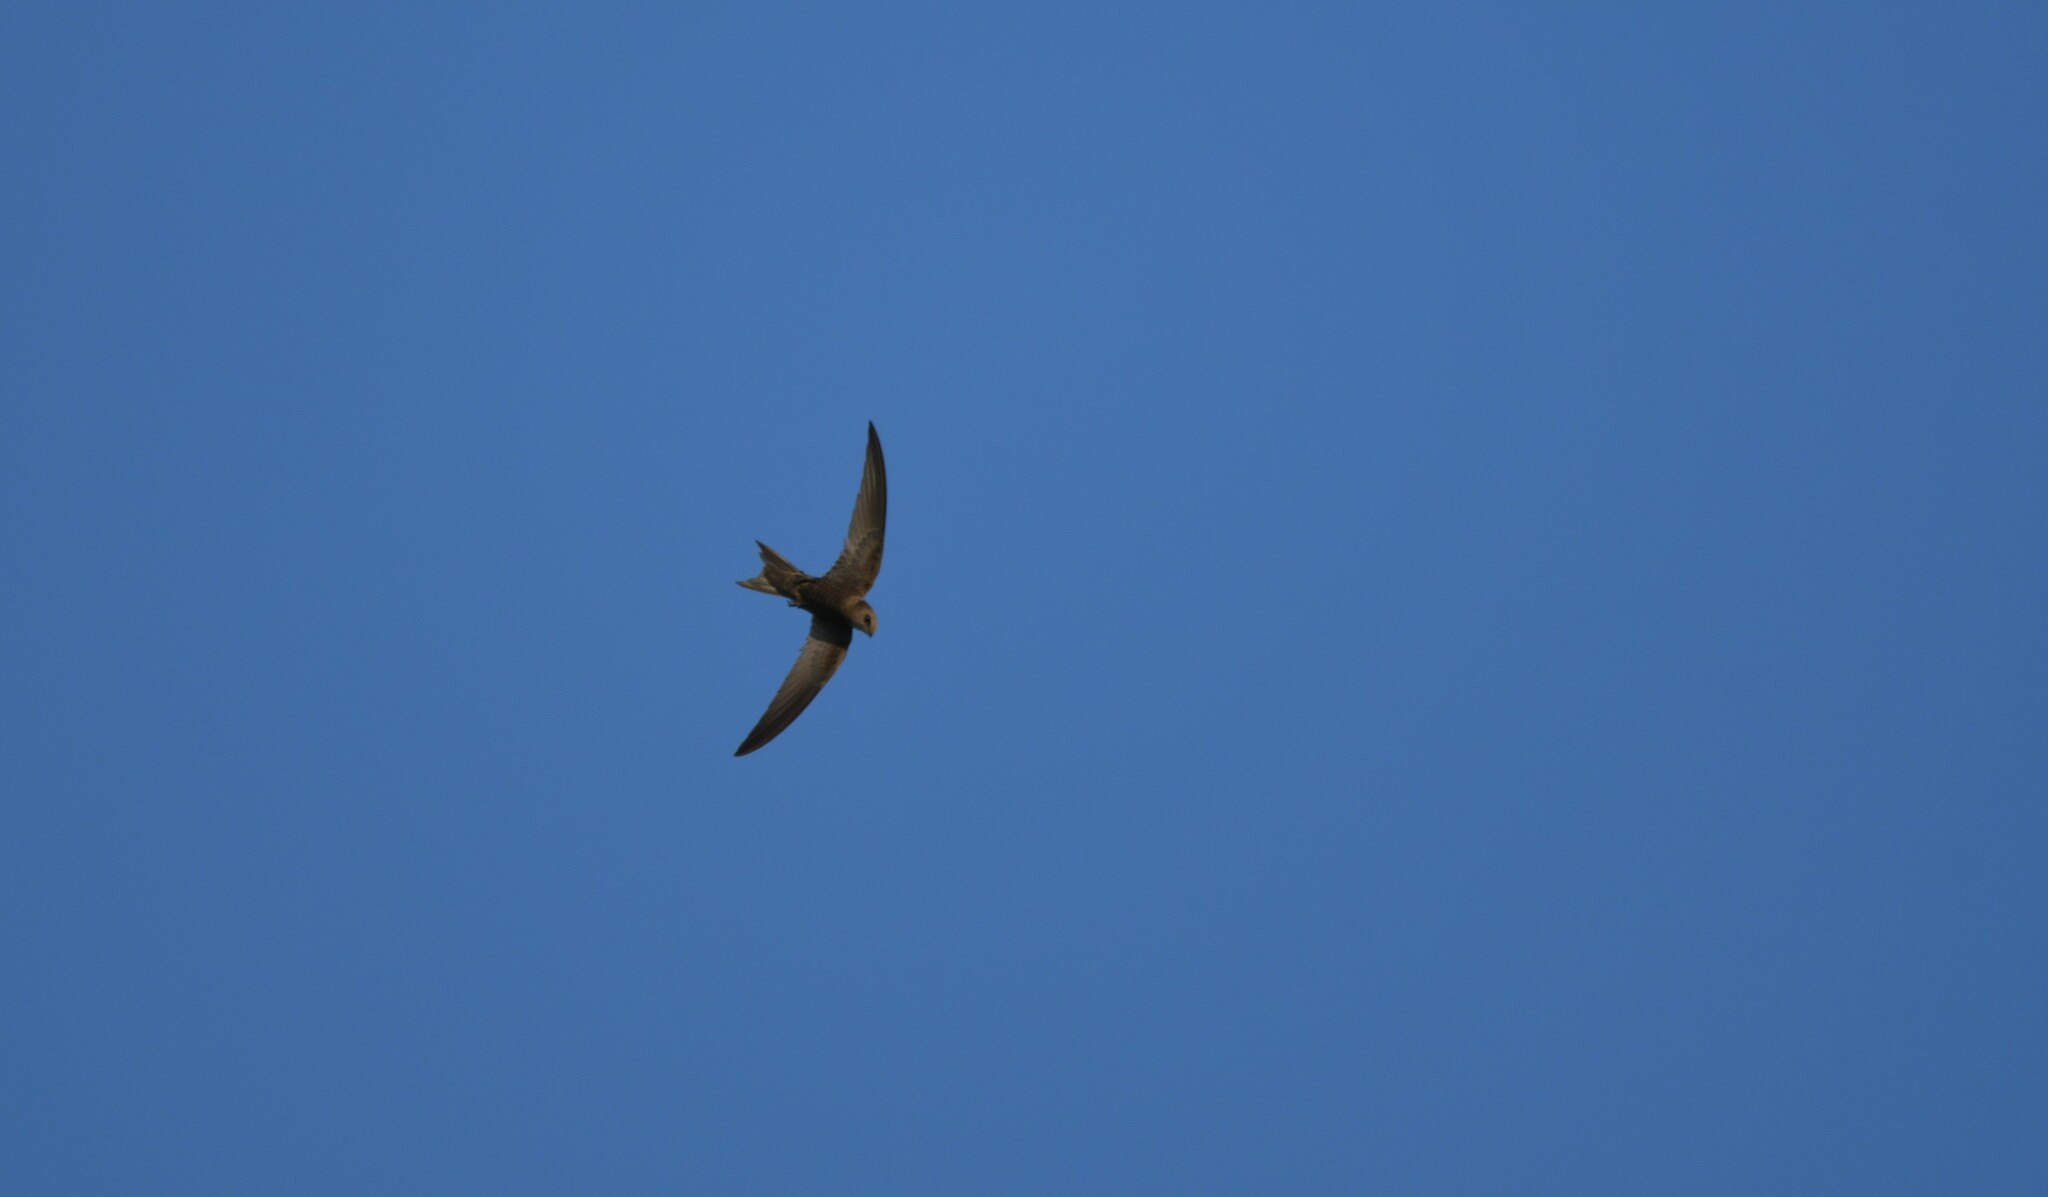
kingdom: Animalia
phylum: Chordata
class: Aves
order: Apodiformes
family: Apodidae
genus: Apus
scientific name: Apus pallidus
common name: Pallid swift
